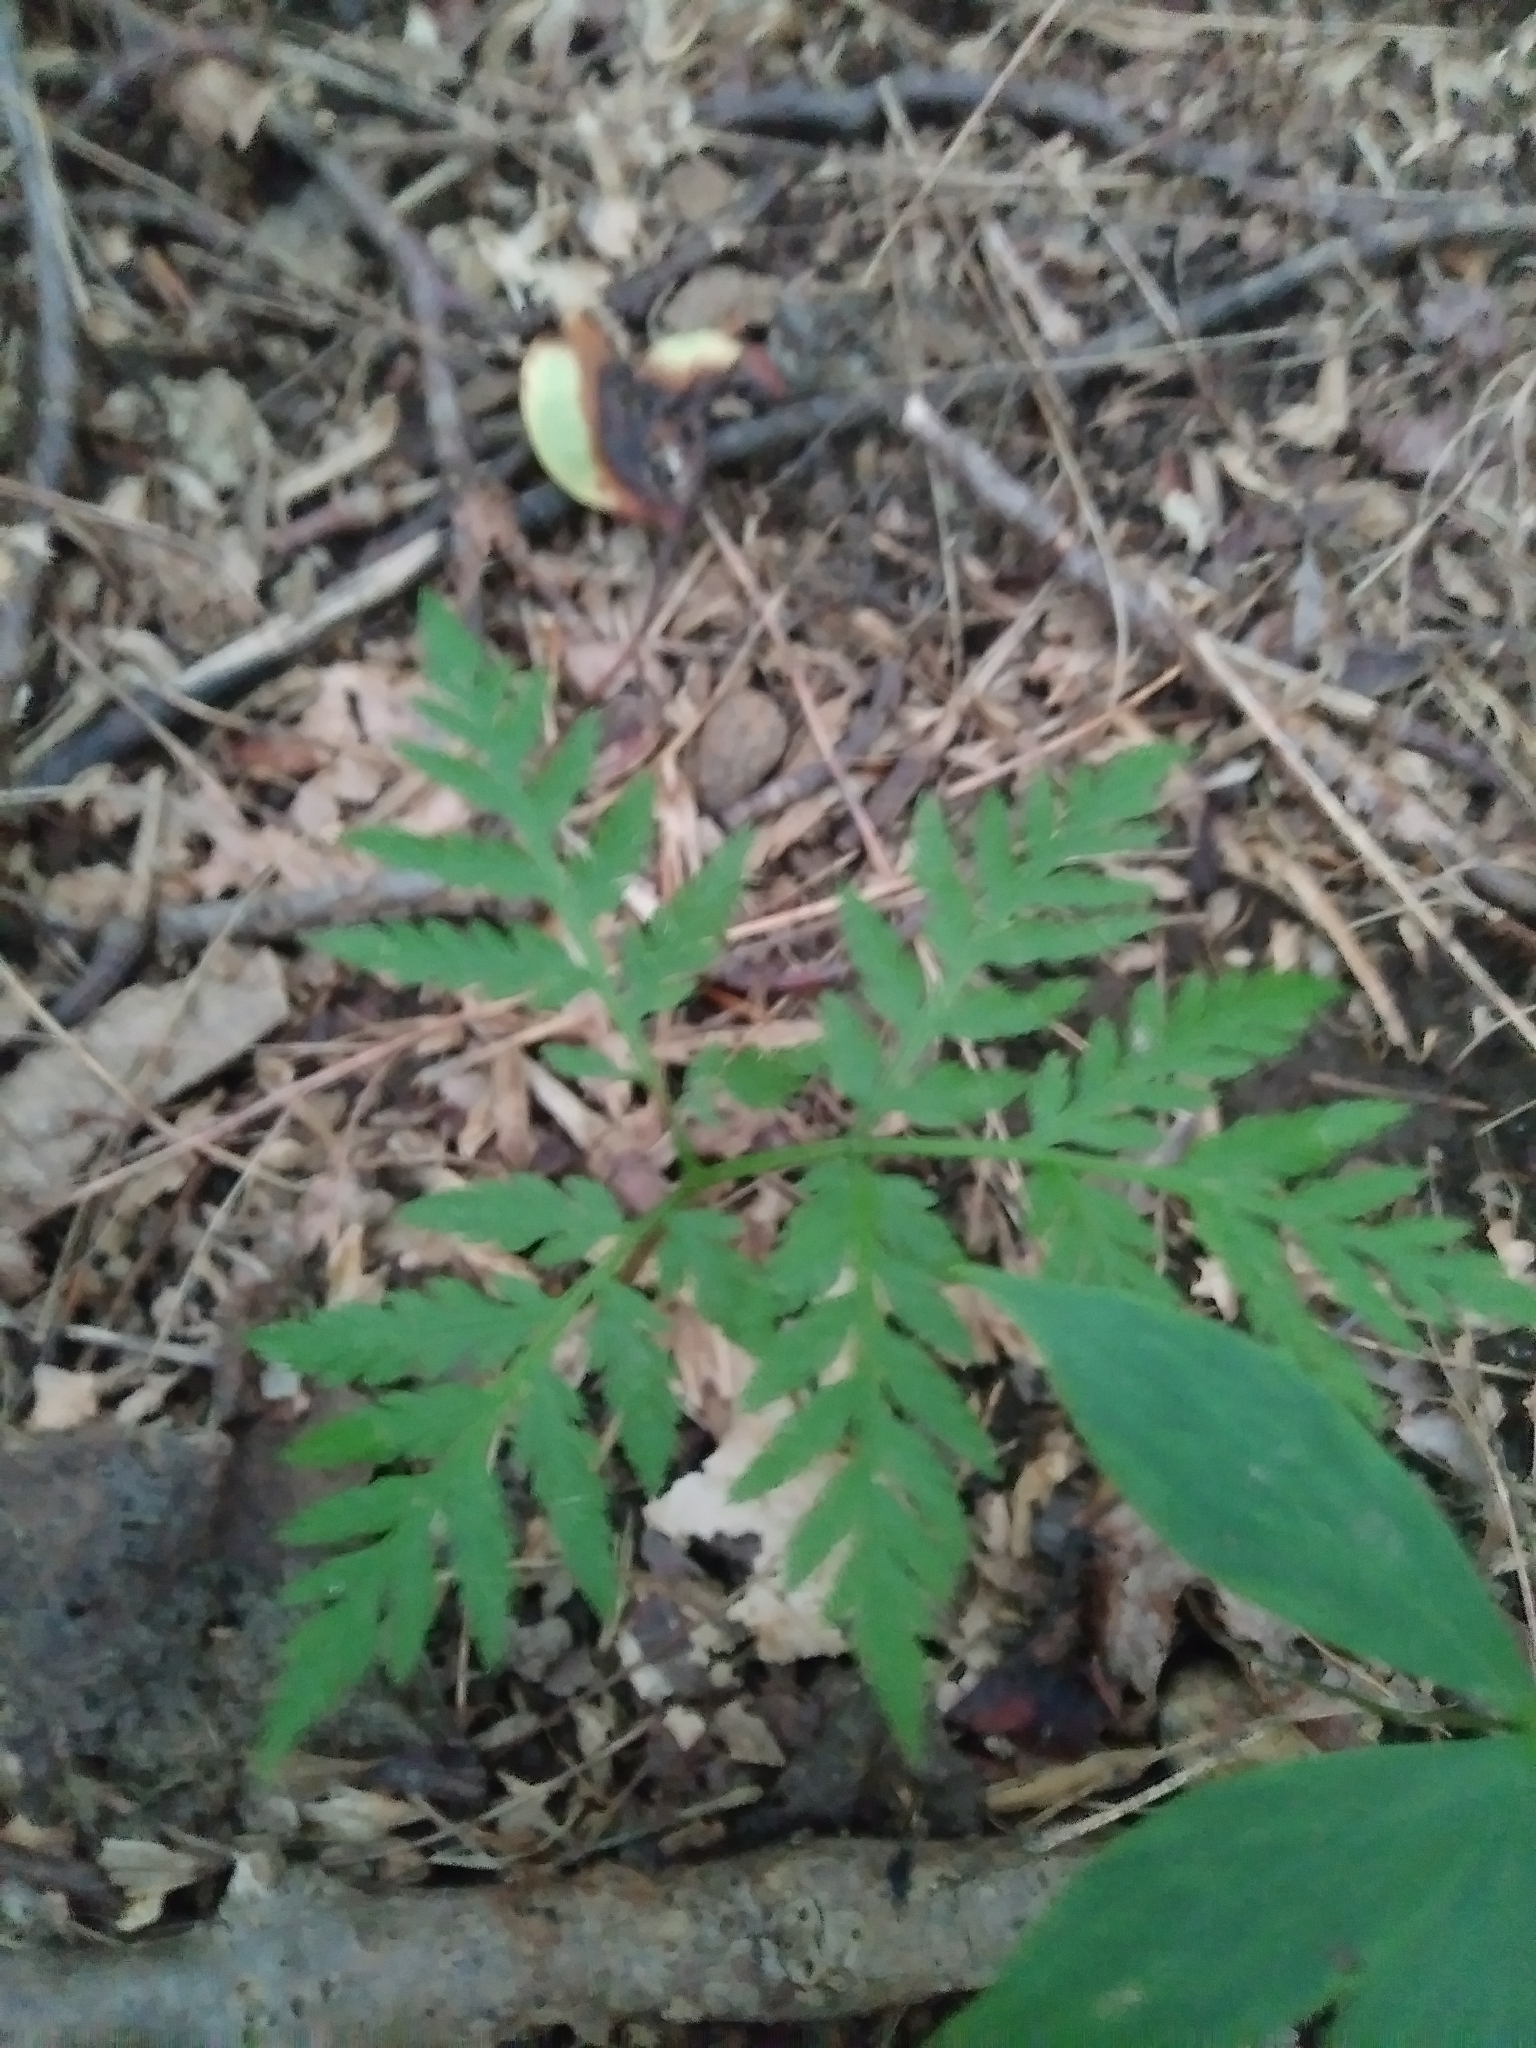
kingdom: Plantae
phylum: Tracheophyta
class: Polypodiopsida
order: Ophioglossales
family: Ophioglossaceae
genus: Botrypus
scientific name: Botrypus virginianus
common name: Common grapefern
